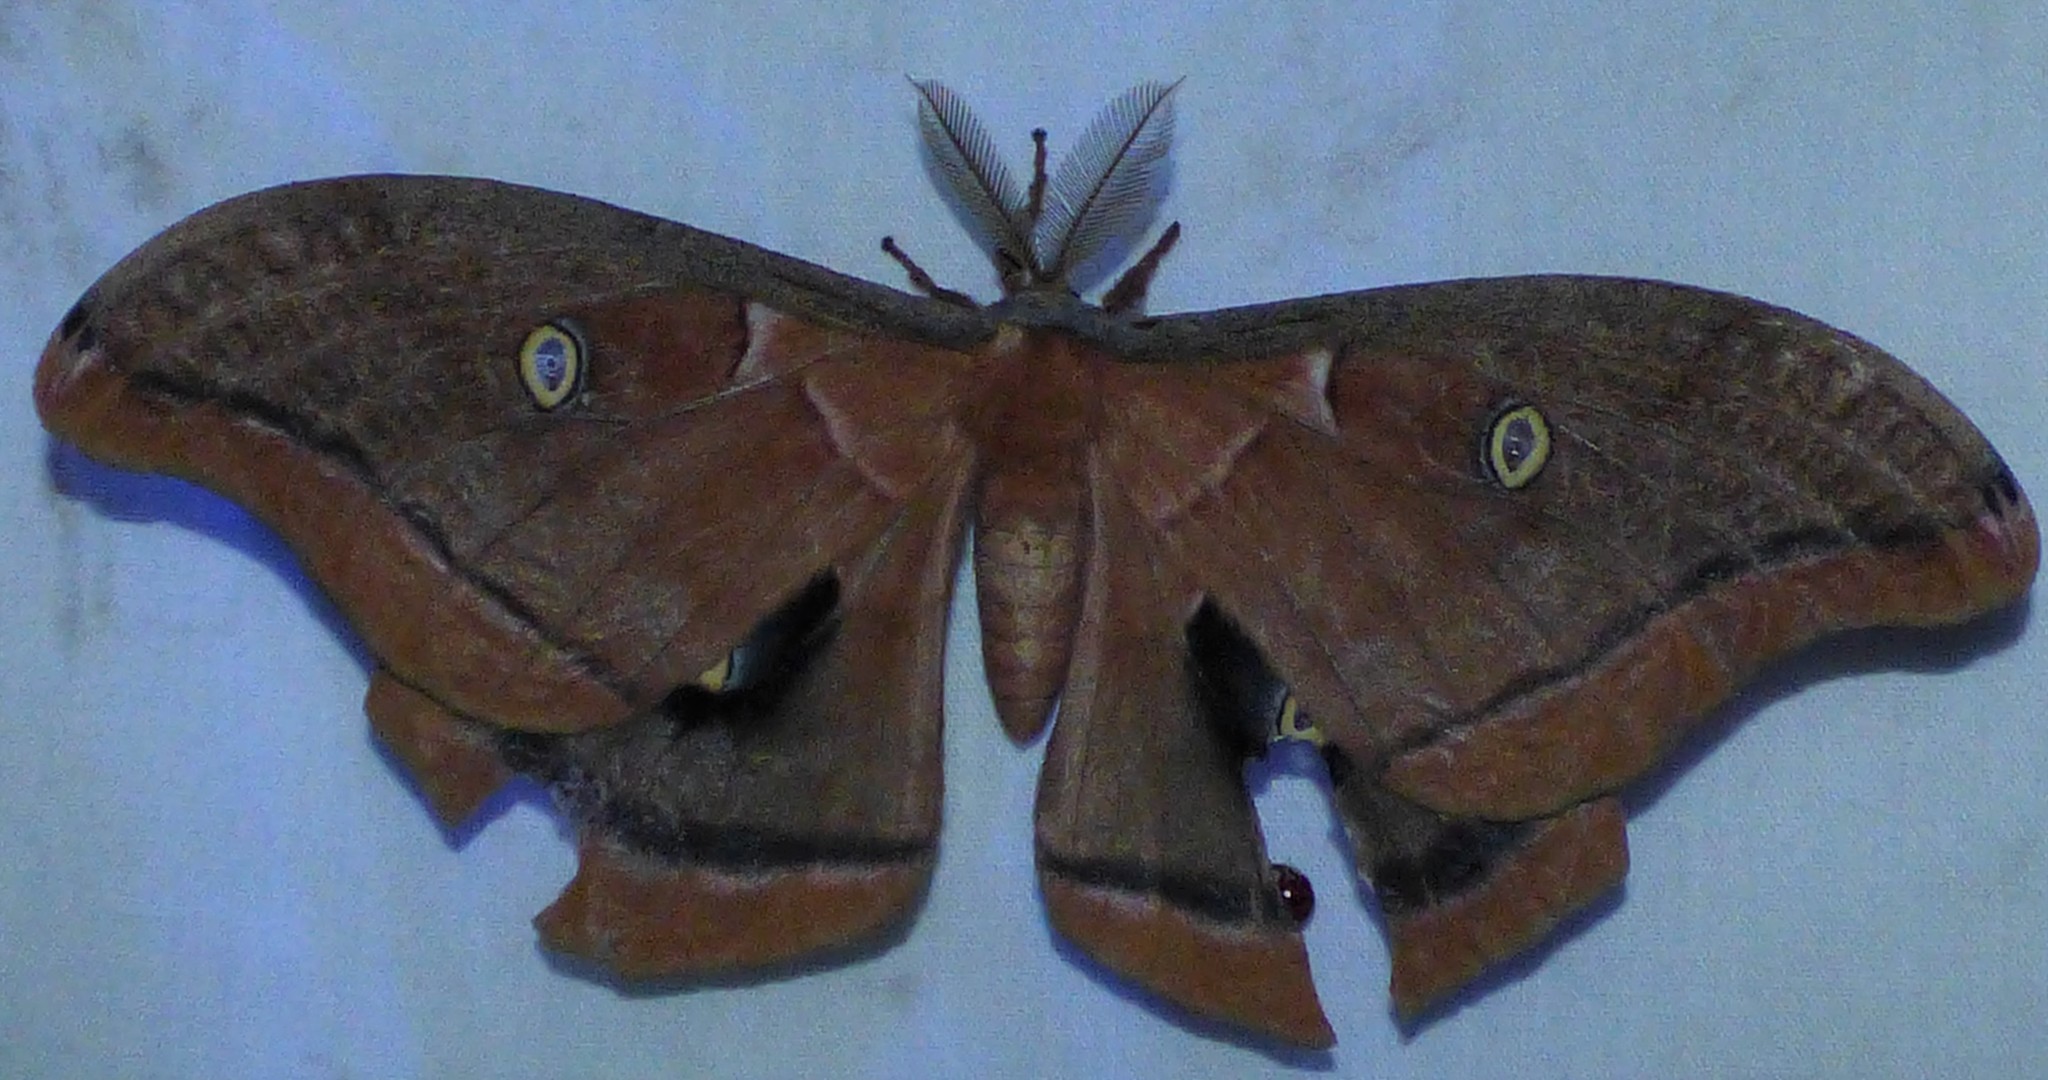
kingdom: Animalia
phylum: Arthropoda
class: Insecta
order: Lepidoptera
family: Saturniidae
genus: Antheraea
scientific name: Antheraea polyphemus
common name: Polyphemus moth
